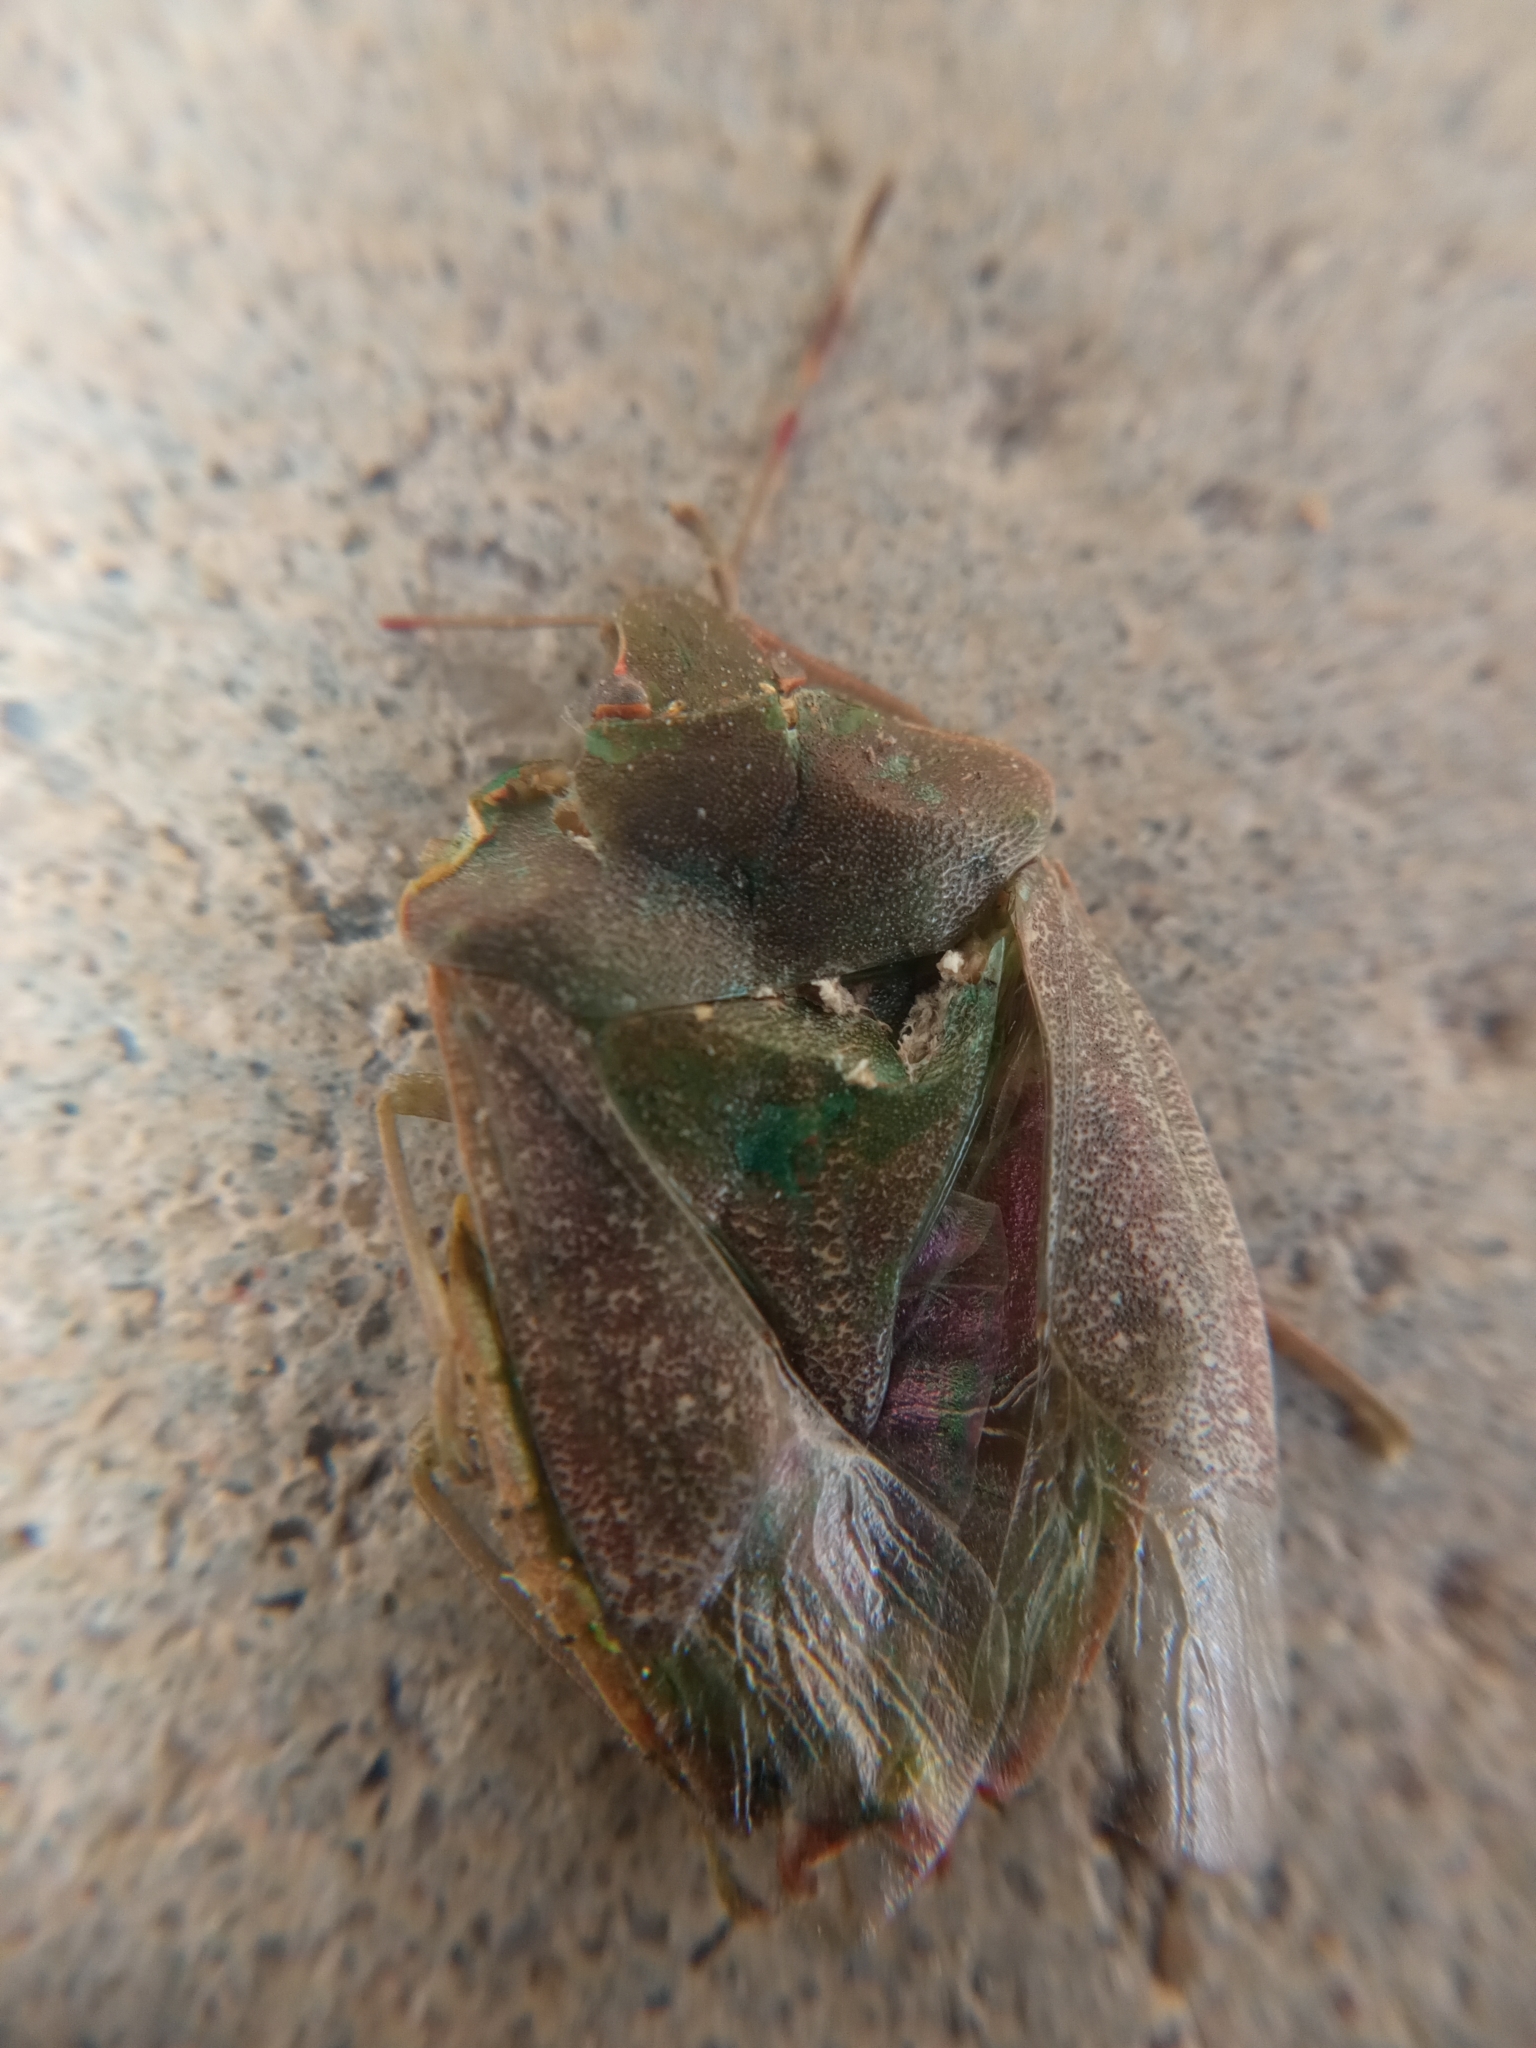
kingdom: Animalia
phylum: Arthropoda
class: Insecta
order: Hemiptera
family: Pentatomidae
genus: Nezara
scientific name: Nezara viridula
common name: Southern green stink bug
